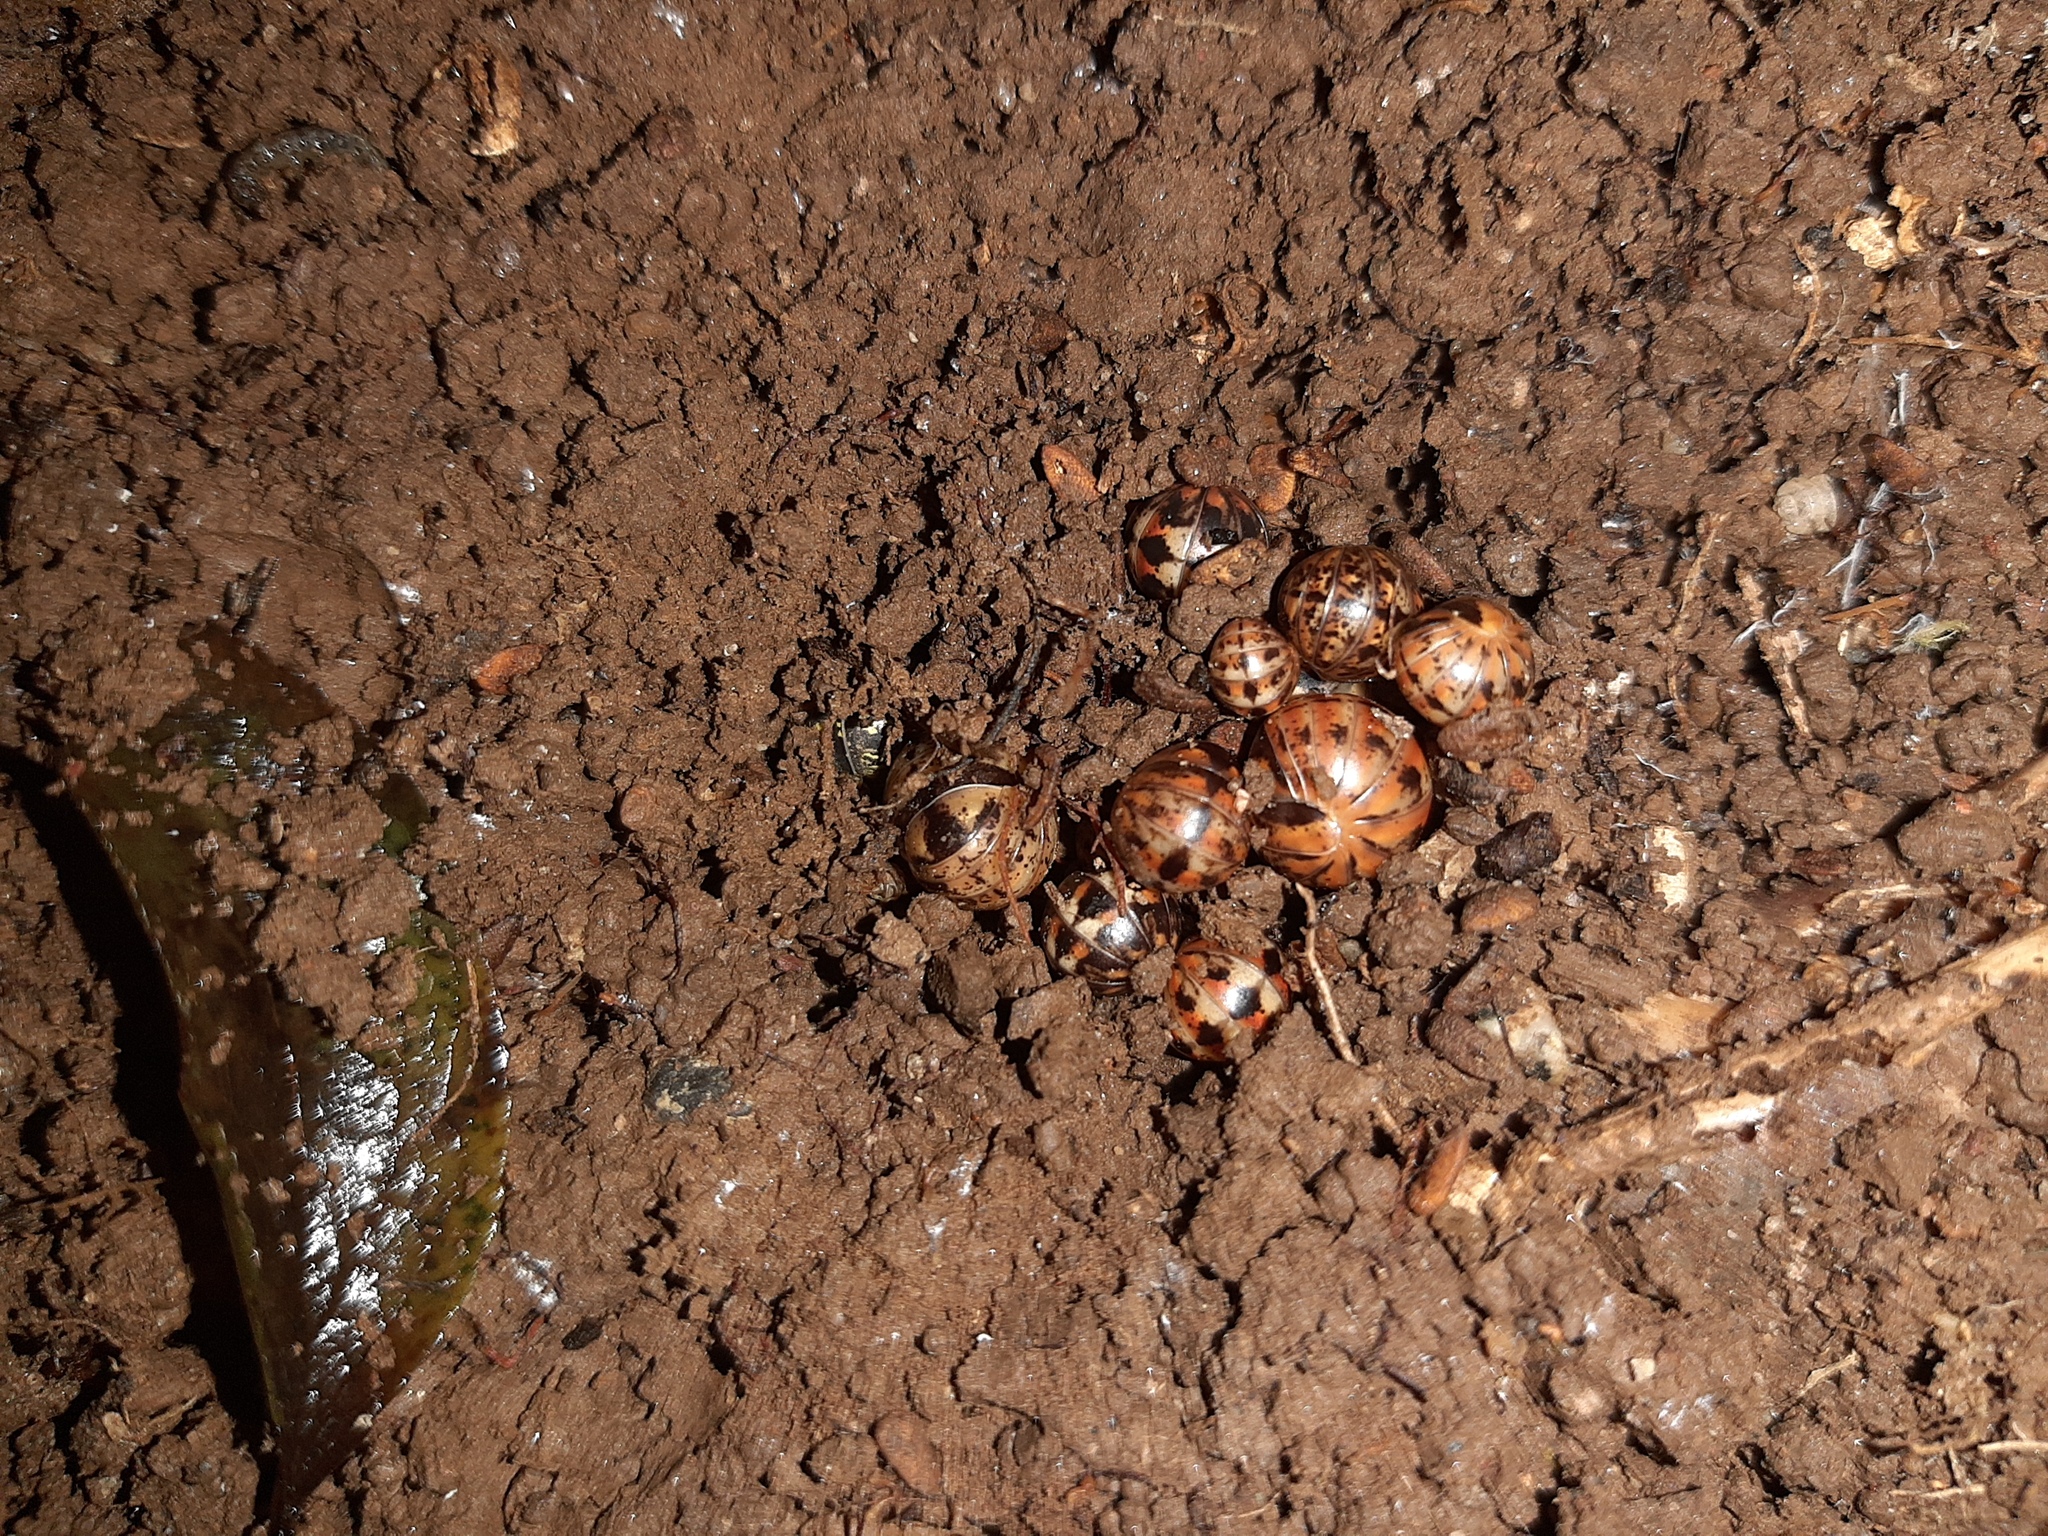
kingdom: Animalia
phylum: Arthropoda
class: Diplopoda
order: Glomerida
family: Glomeridae
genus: Glomeris
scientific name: Glomeris klugii
